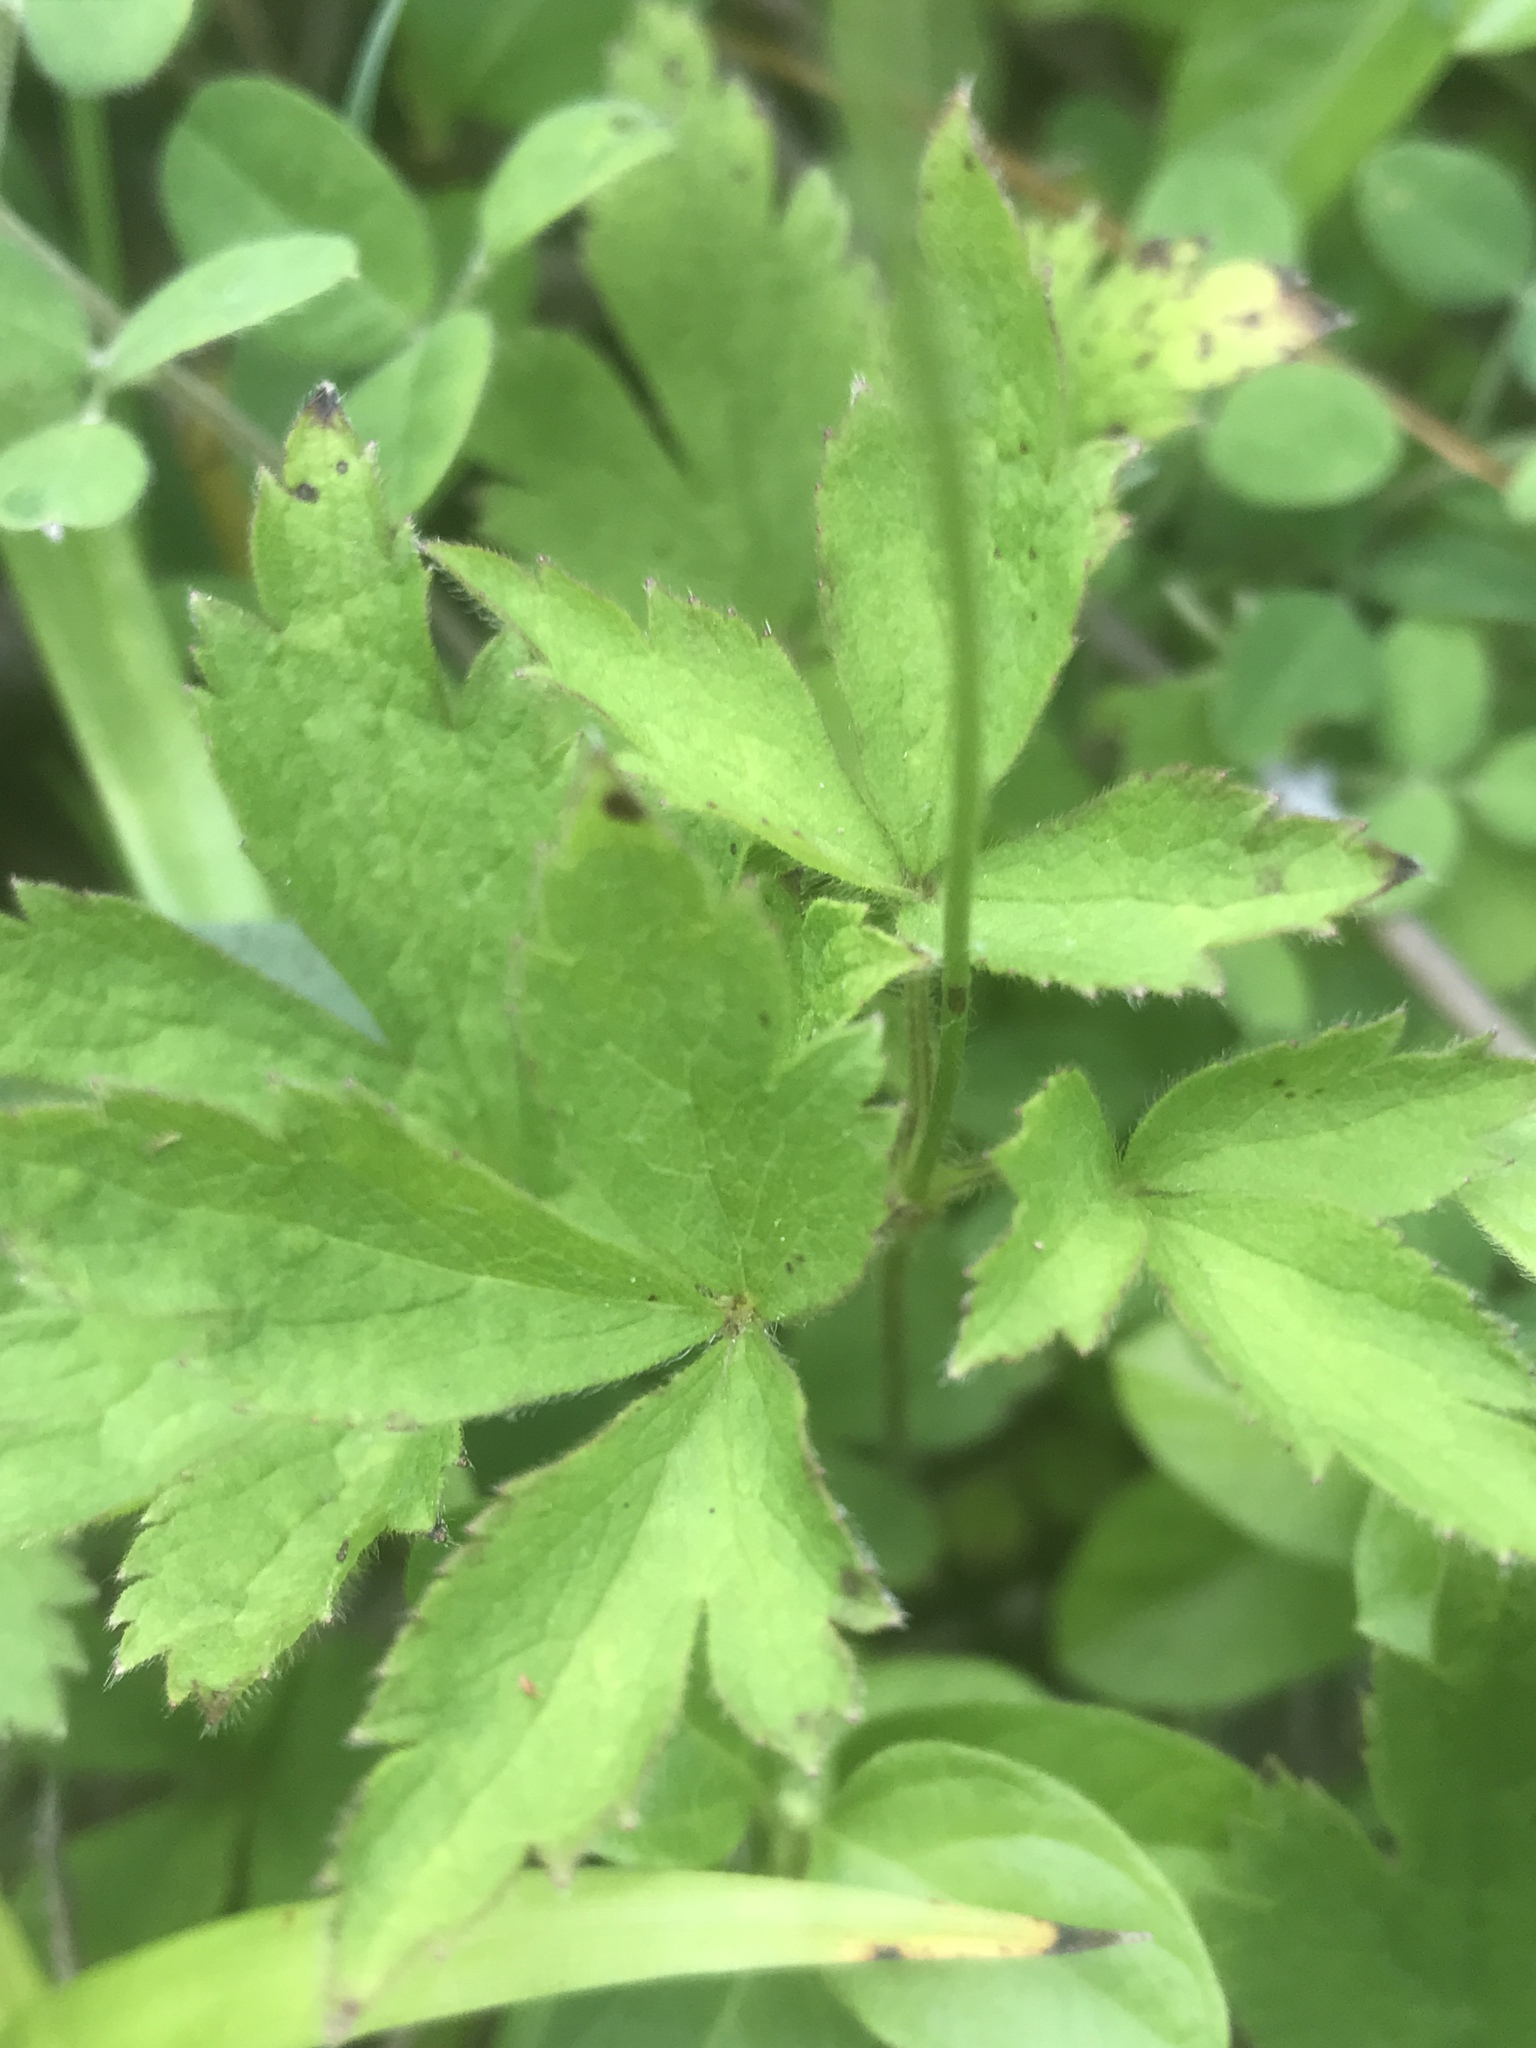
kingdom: Plantae
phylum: Tracheophyta
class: Magnoliopsida
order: Ranunculales
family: Ranunculaceae
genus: Anemone
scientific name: Anemone virginiana
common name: Tall anemone
